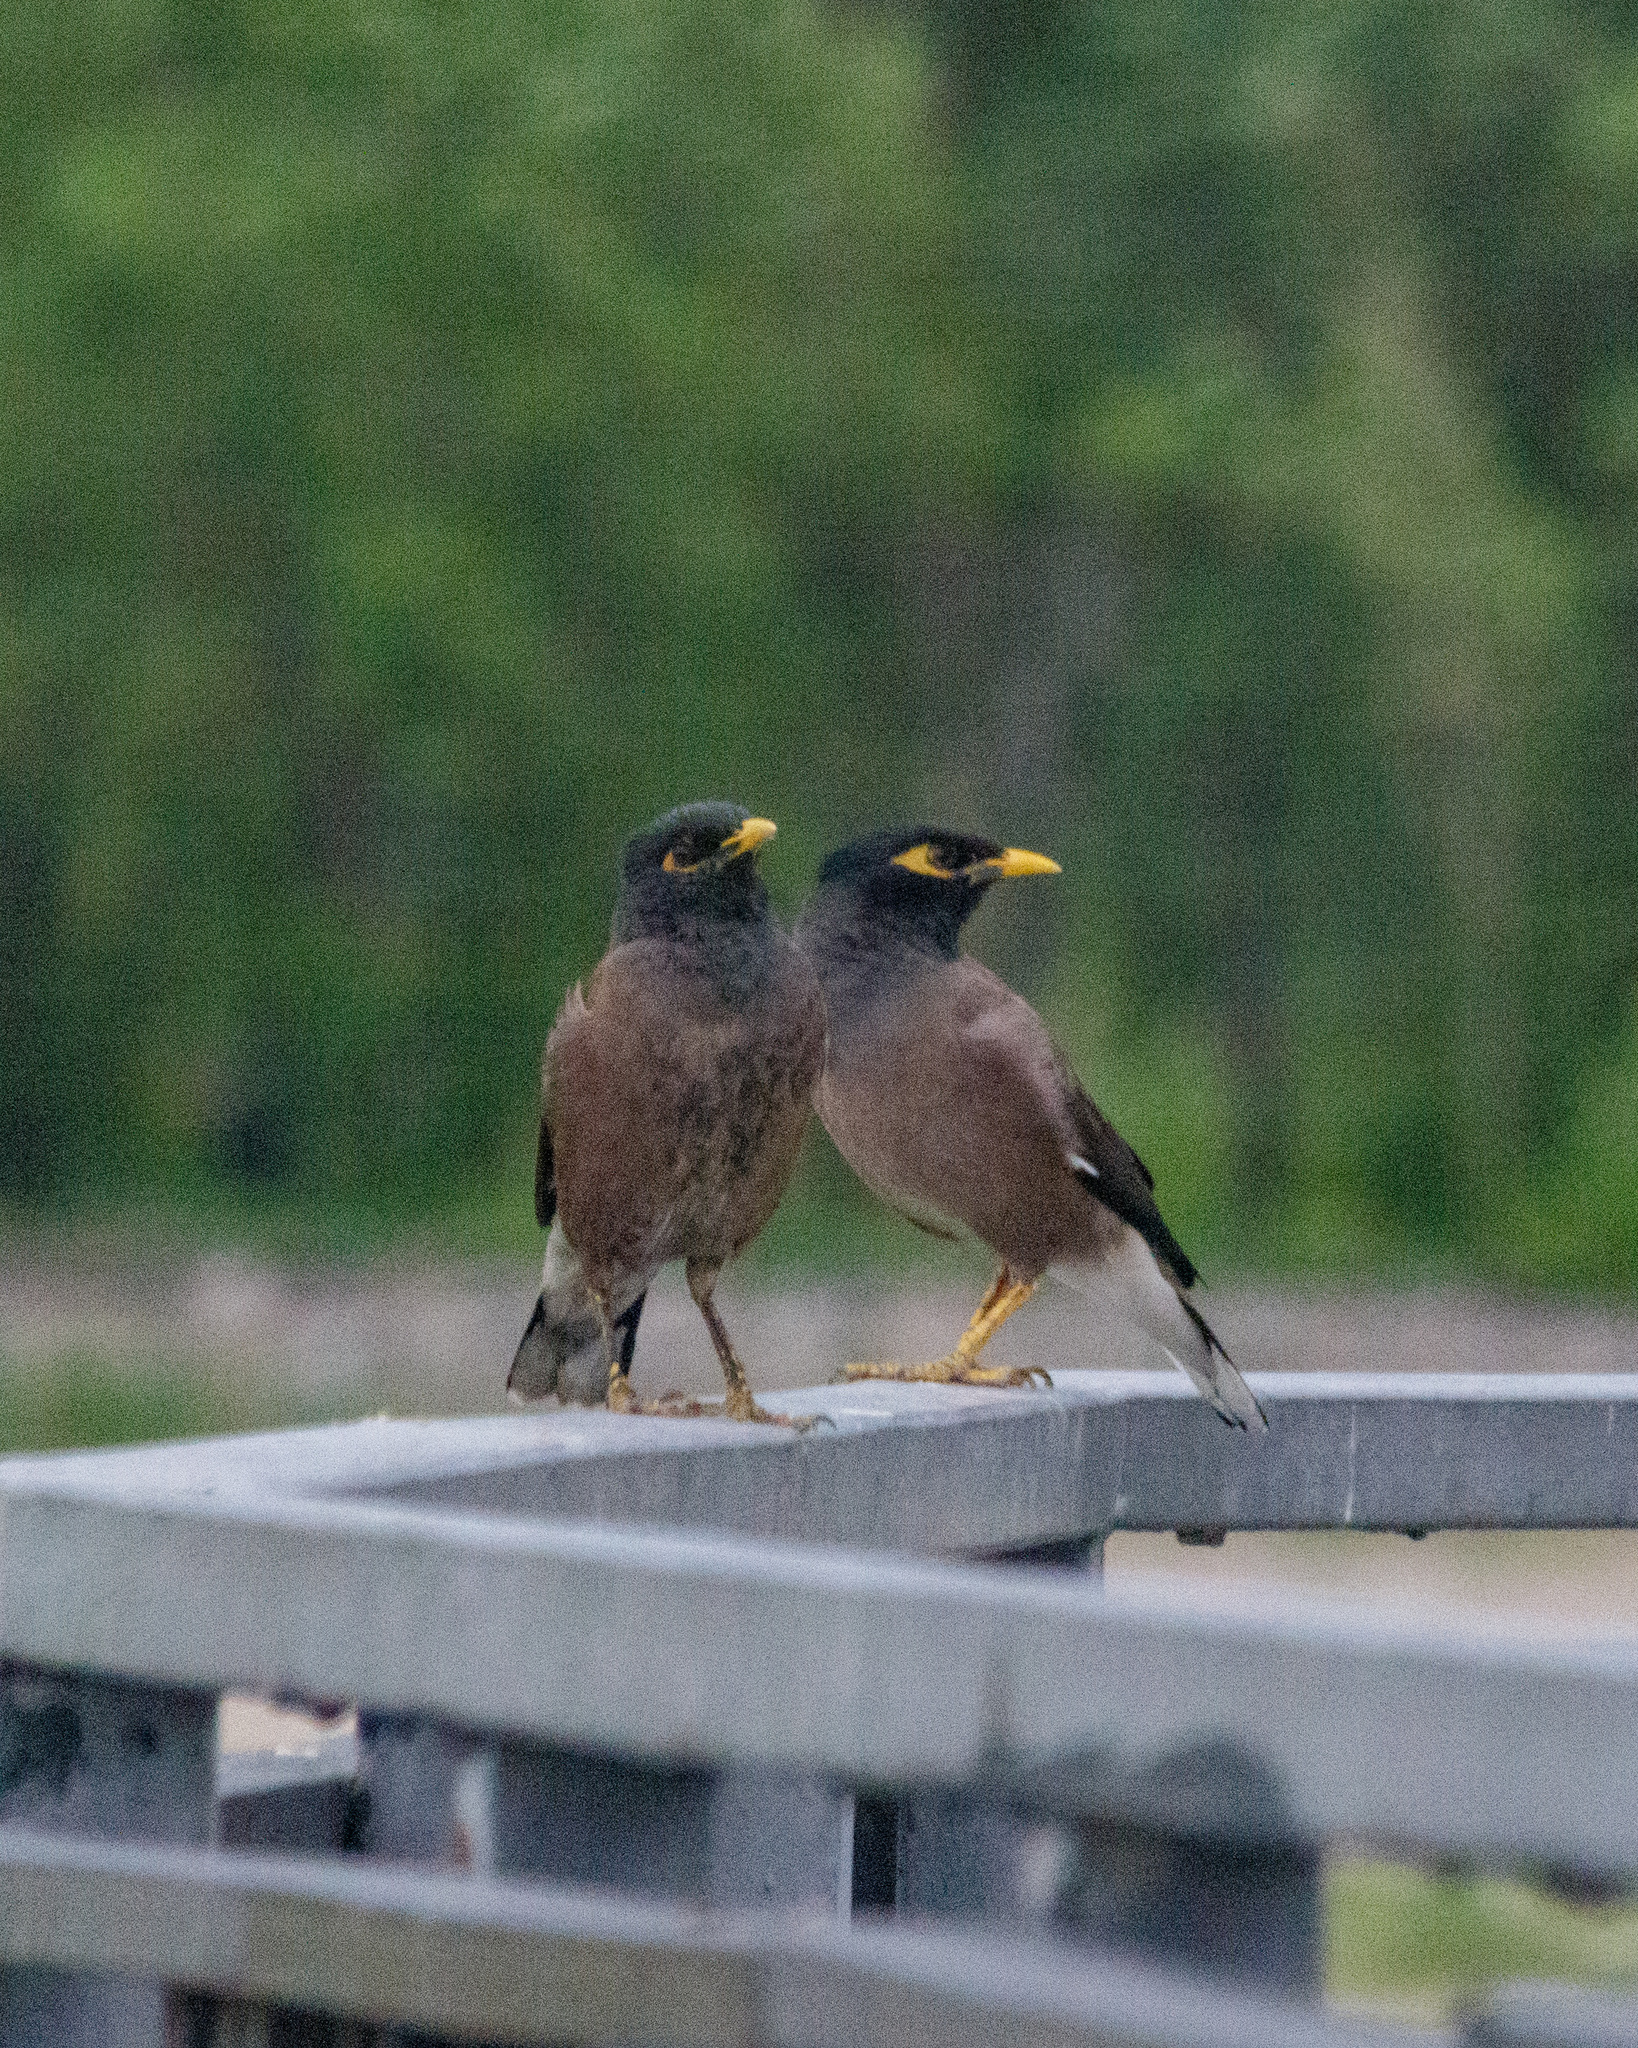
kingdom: Animalia
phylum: Chordata
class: Aves
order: Passeriformes
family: Sturnidae
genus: Acridotheres
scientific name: Acridotheres tristis
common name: Common myna
